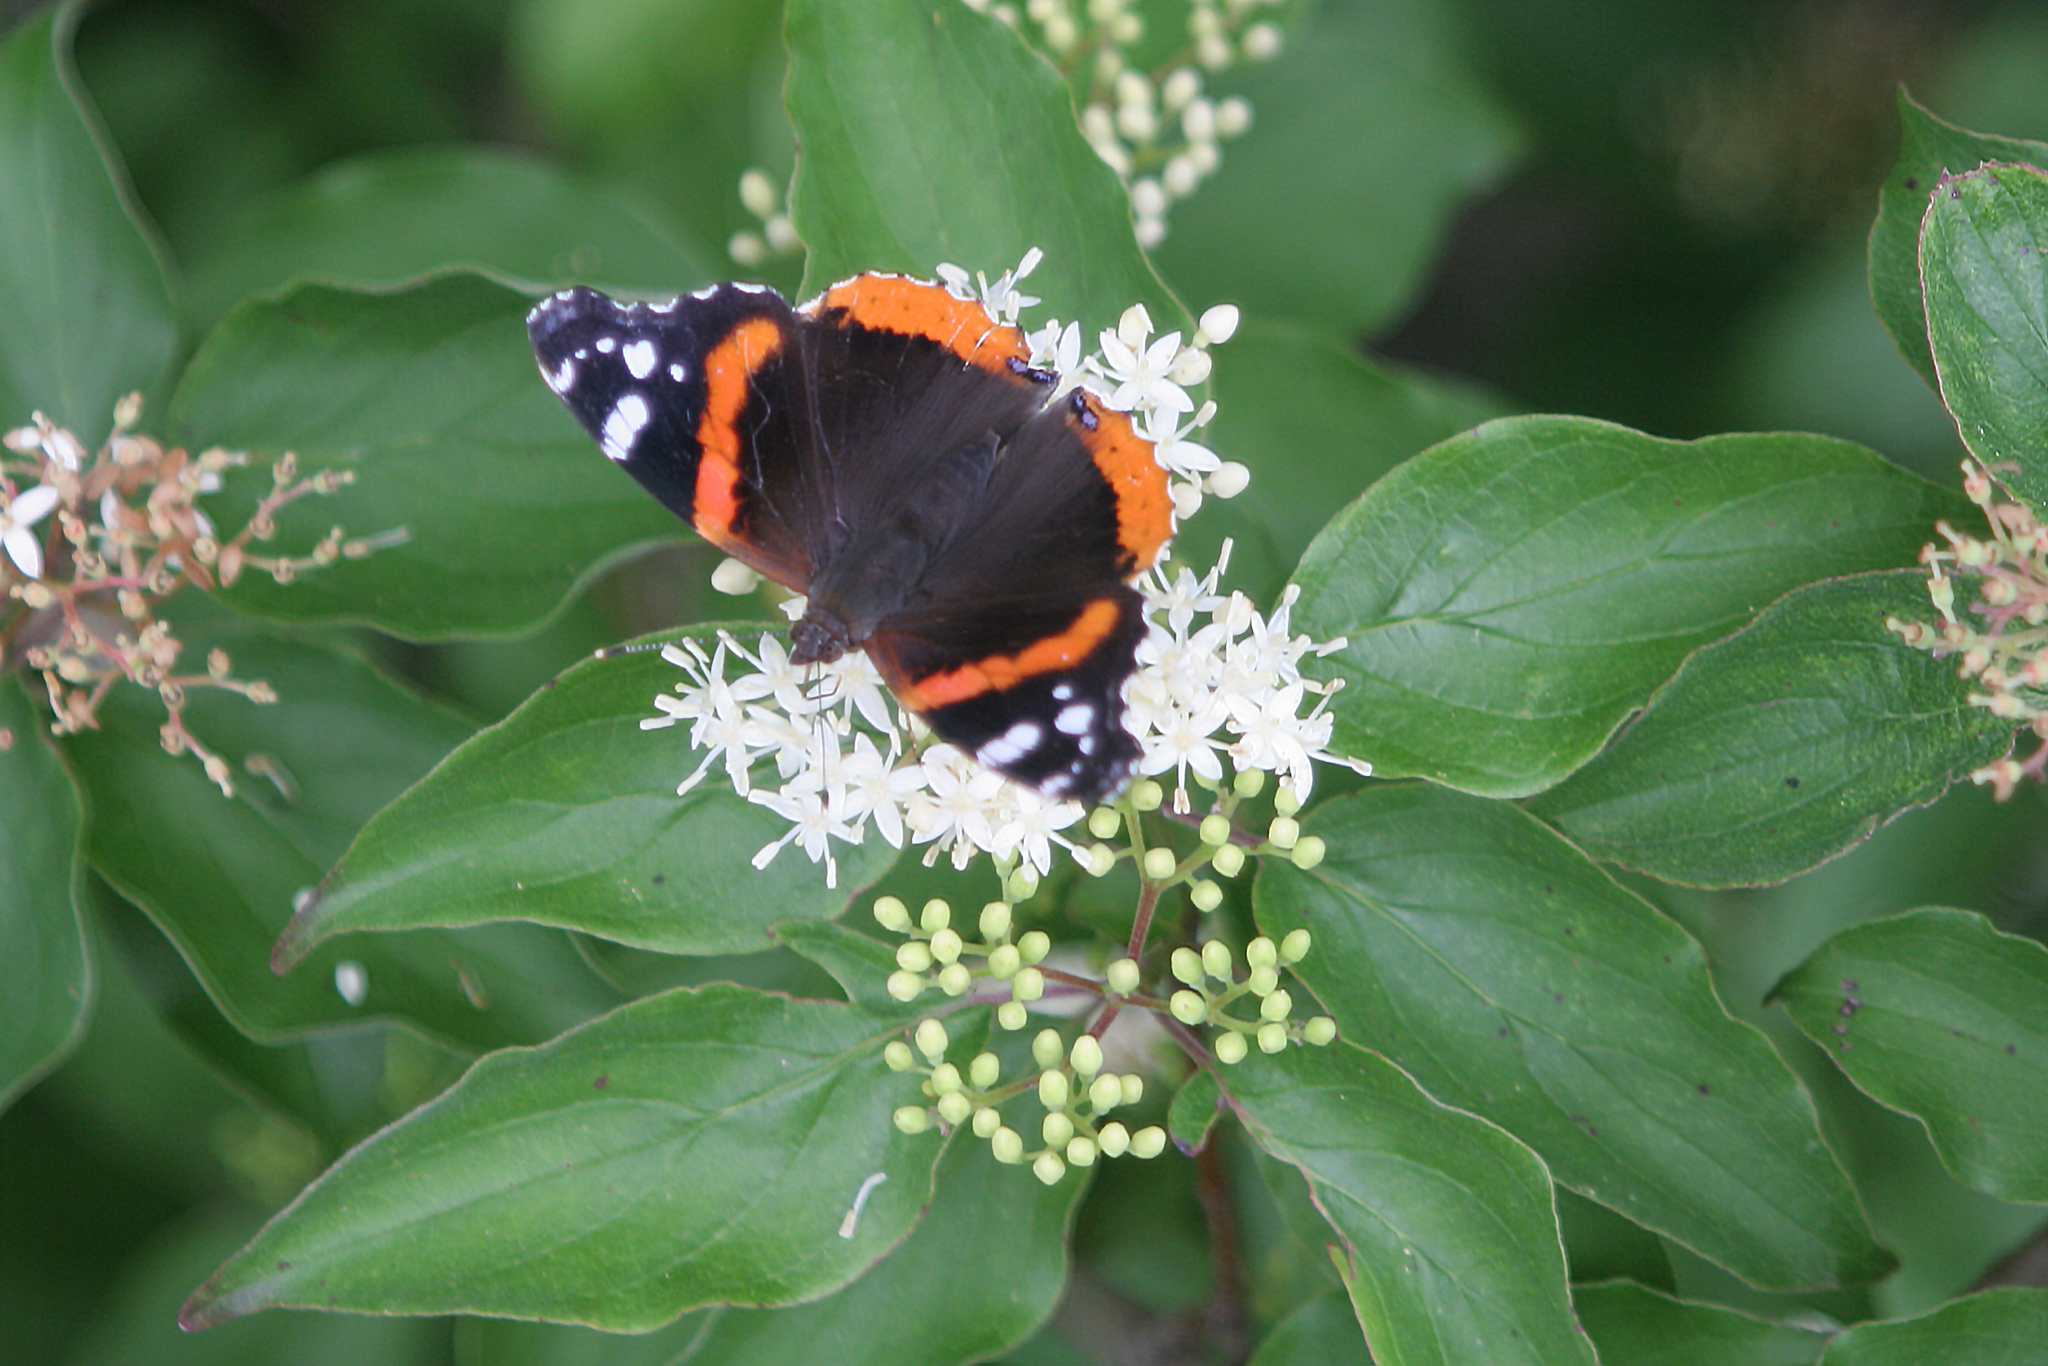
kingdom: Animalia
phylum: Arthropoda
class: Insecta
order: Lepidoptera
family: Nymphalidae
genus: Vanessa
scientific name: Vanessa atalanta
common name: Red admiral
